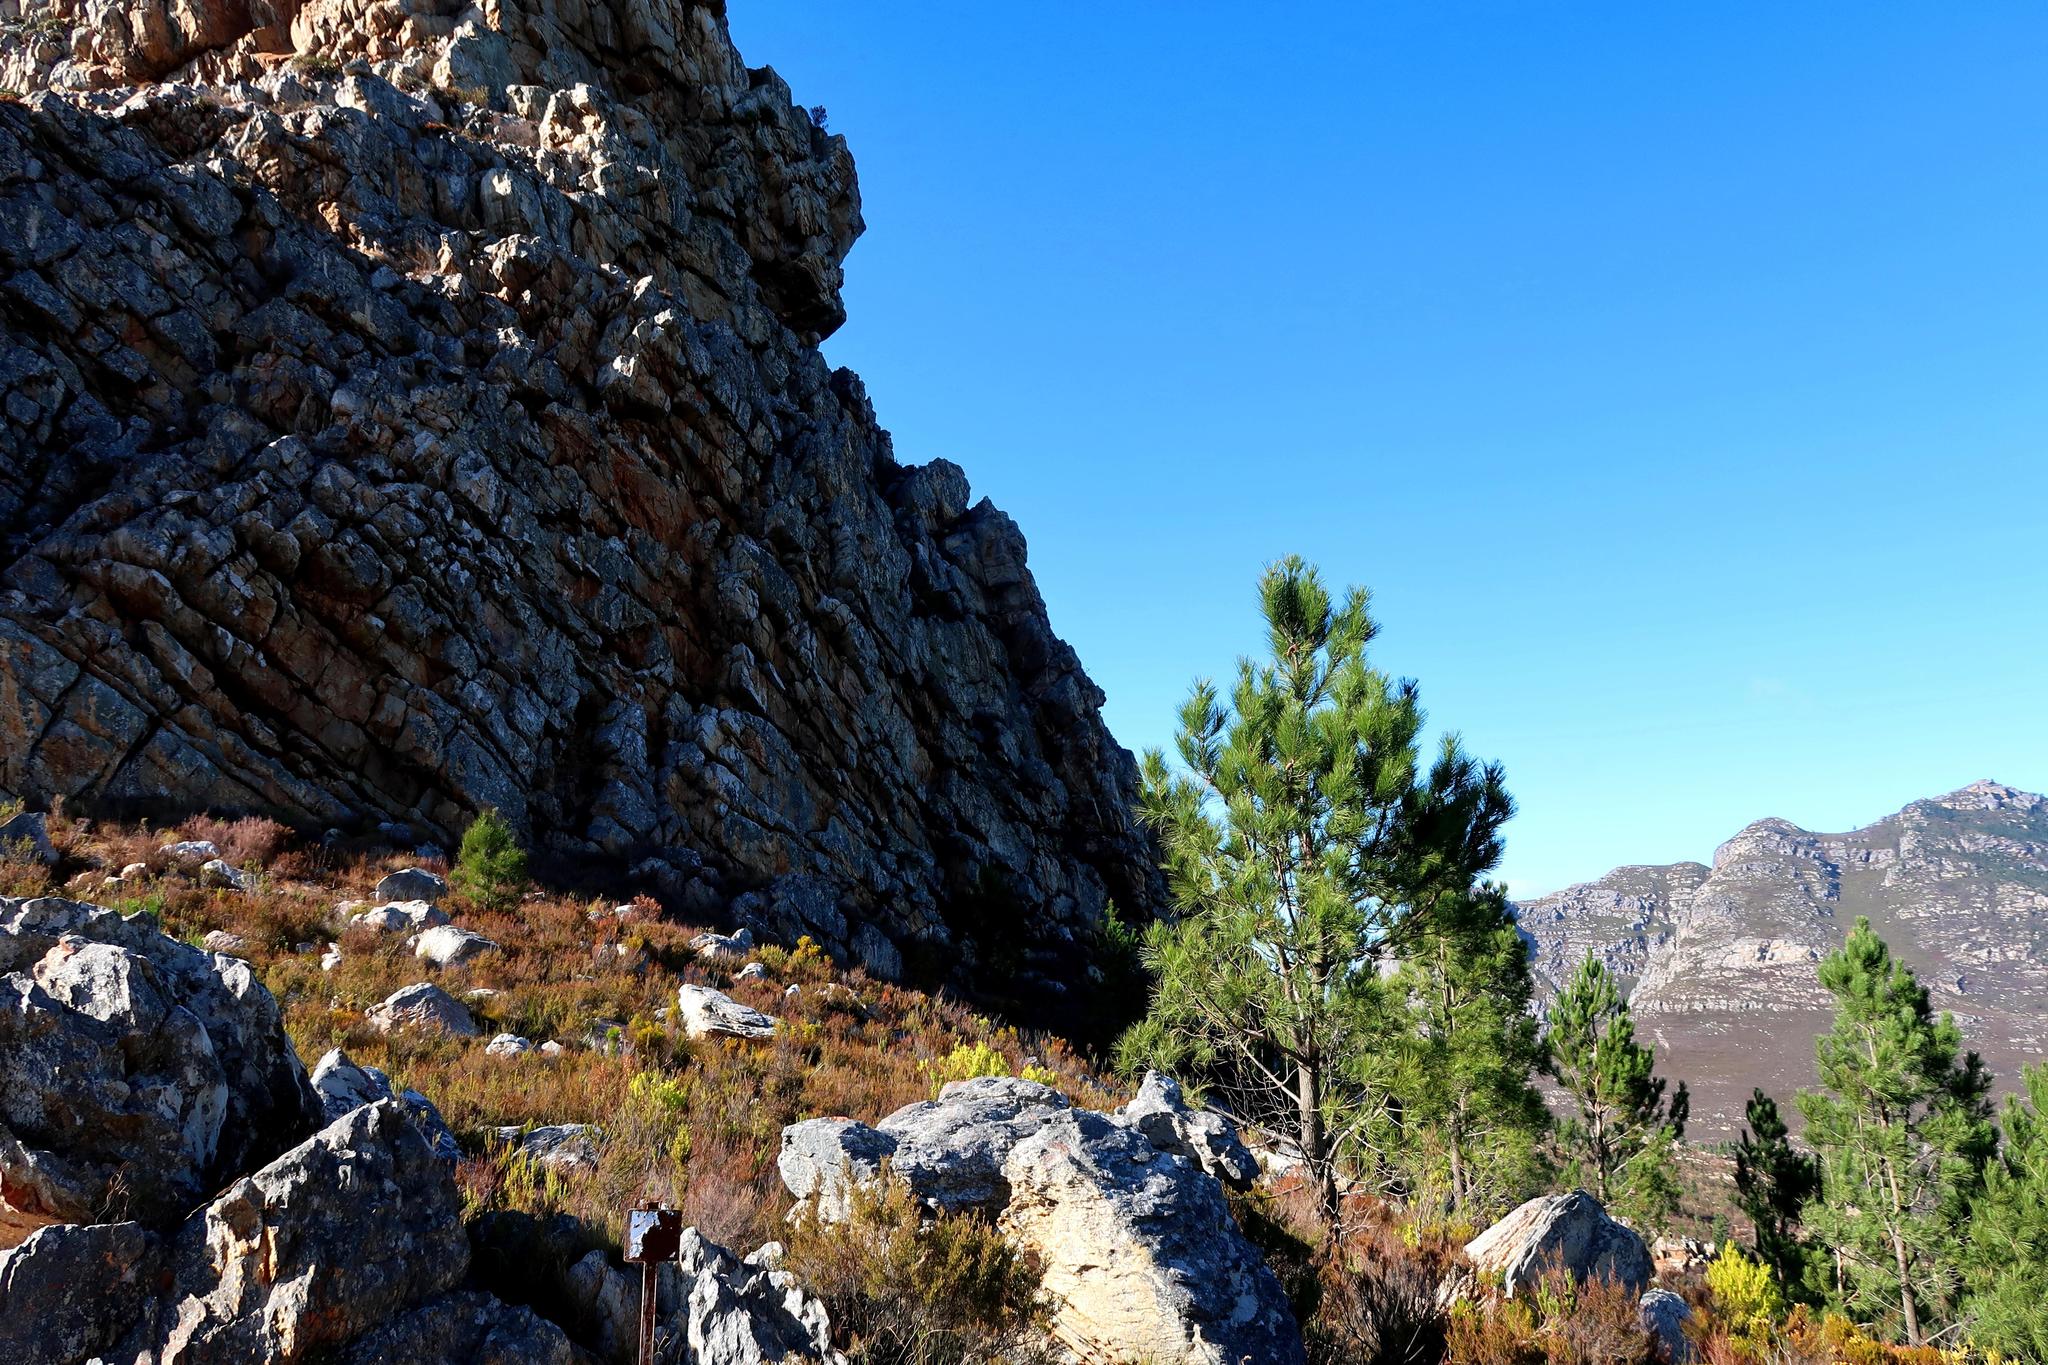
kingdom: Plantae
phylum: Tracheophyta
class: Pinopsida
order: Pinales
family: Pinaceae
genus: Pinus
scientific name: Pinus pinaster
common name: Maritime pine
